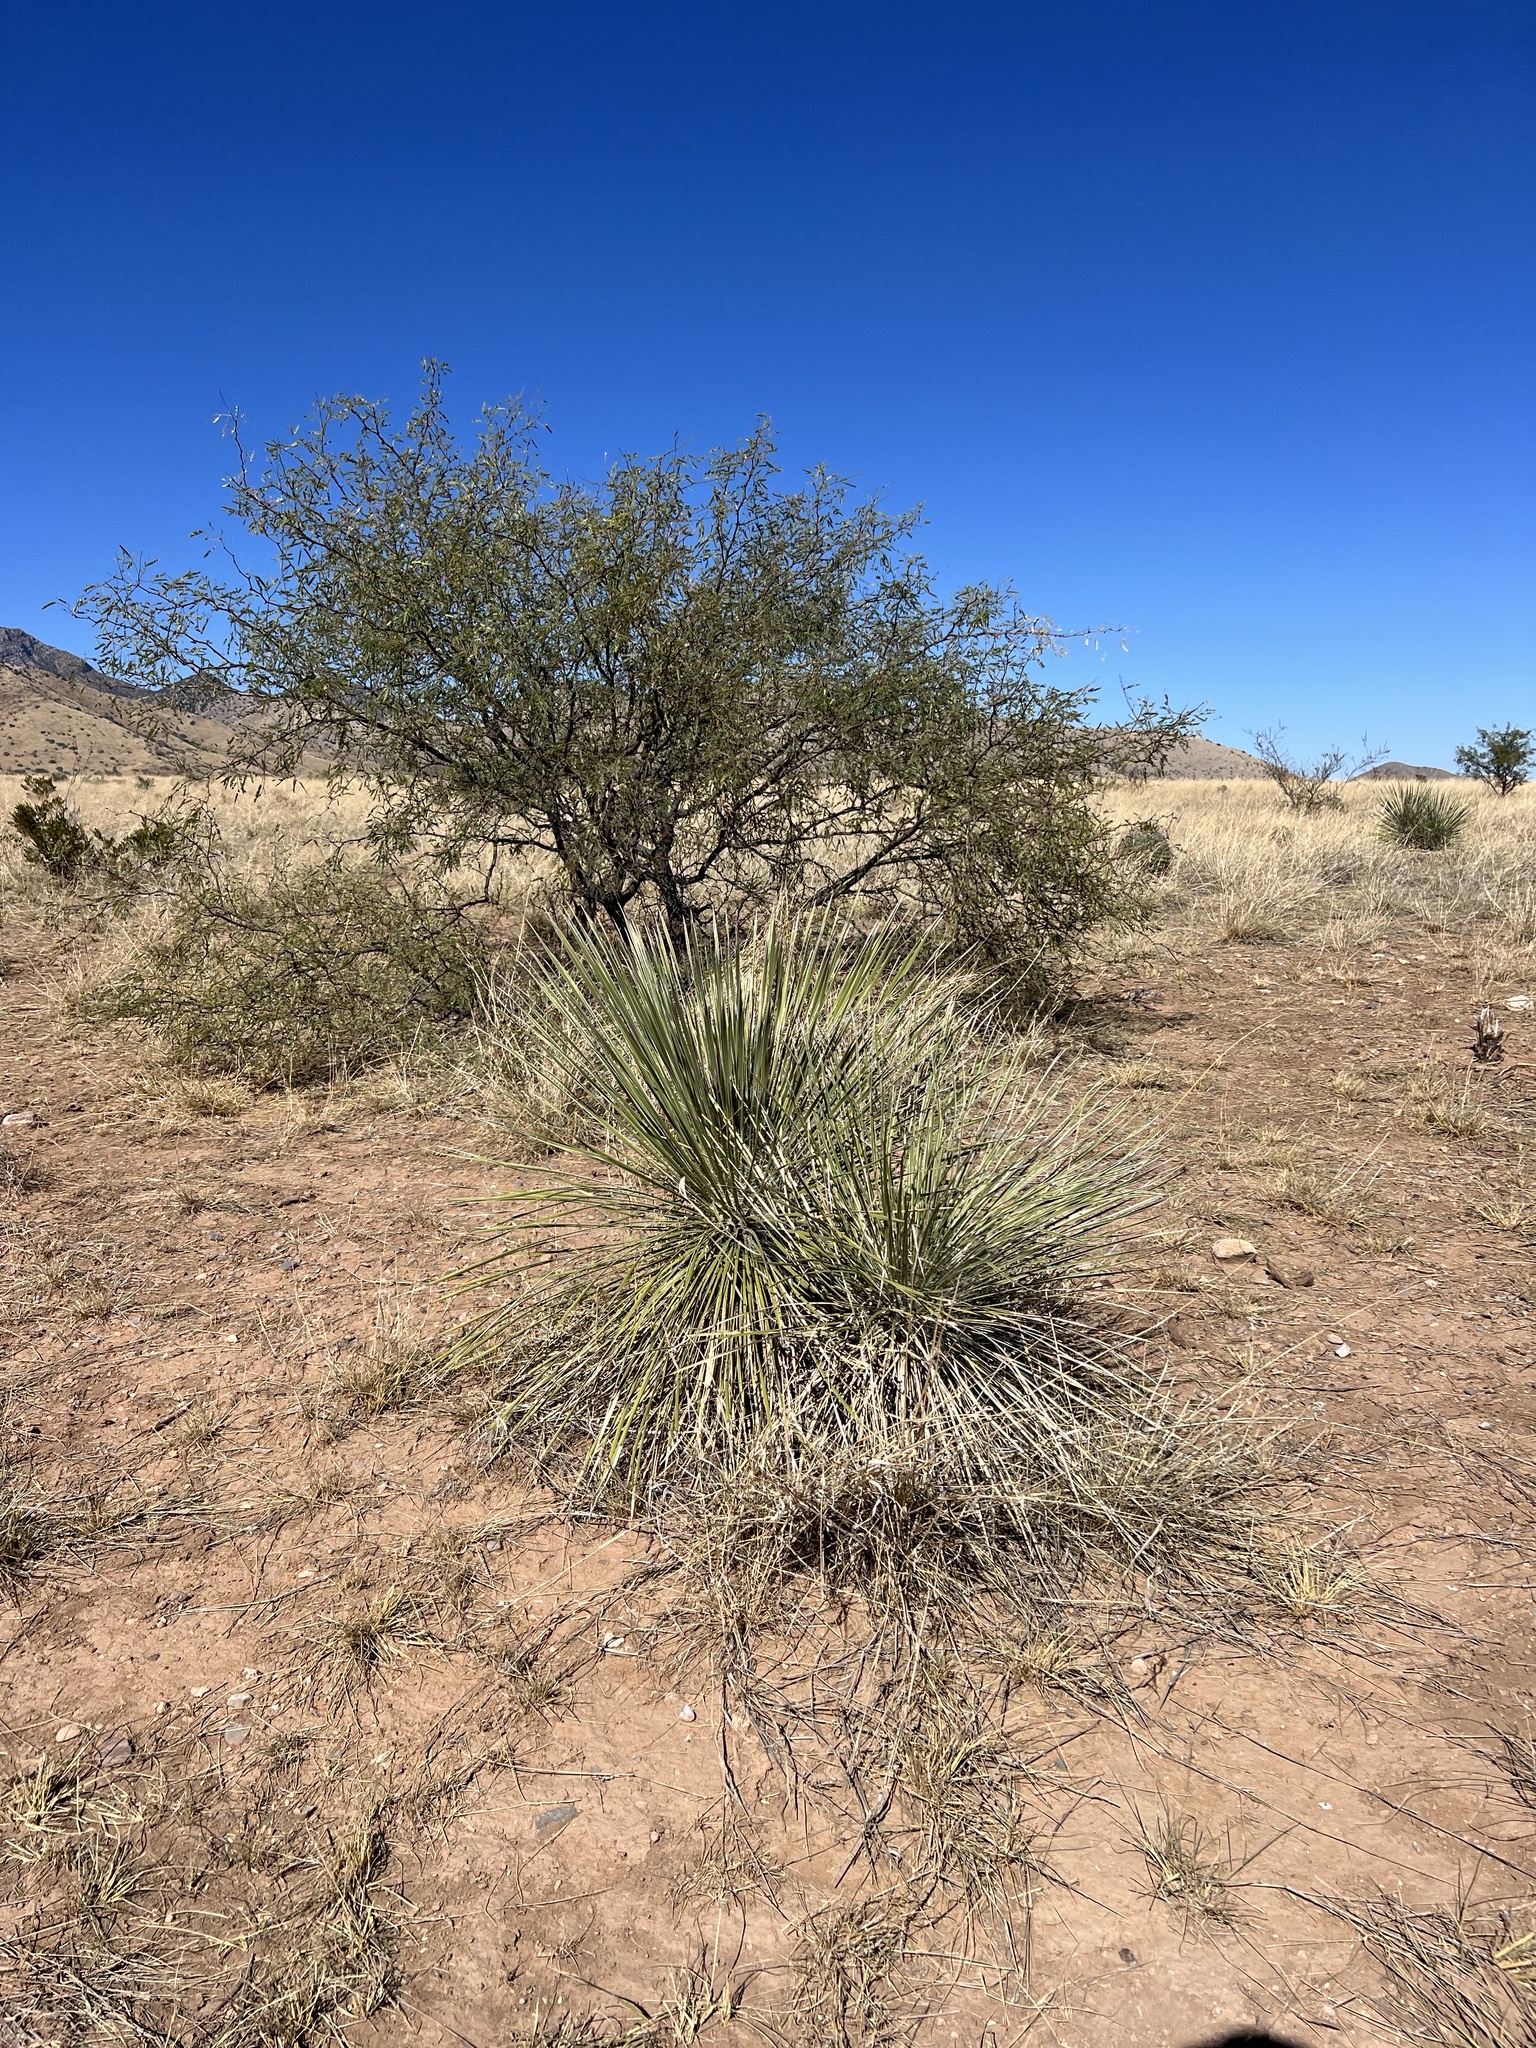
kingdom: Plantae
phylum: Tracheophyta
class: Liliopsida
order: Asparagales
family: Asparagaceae
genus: Yucca
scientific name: Yucca elata
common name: Palmella
